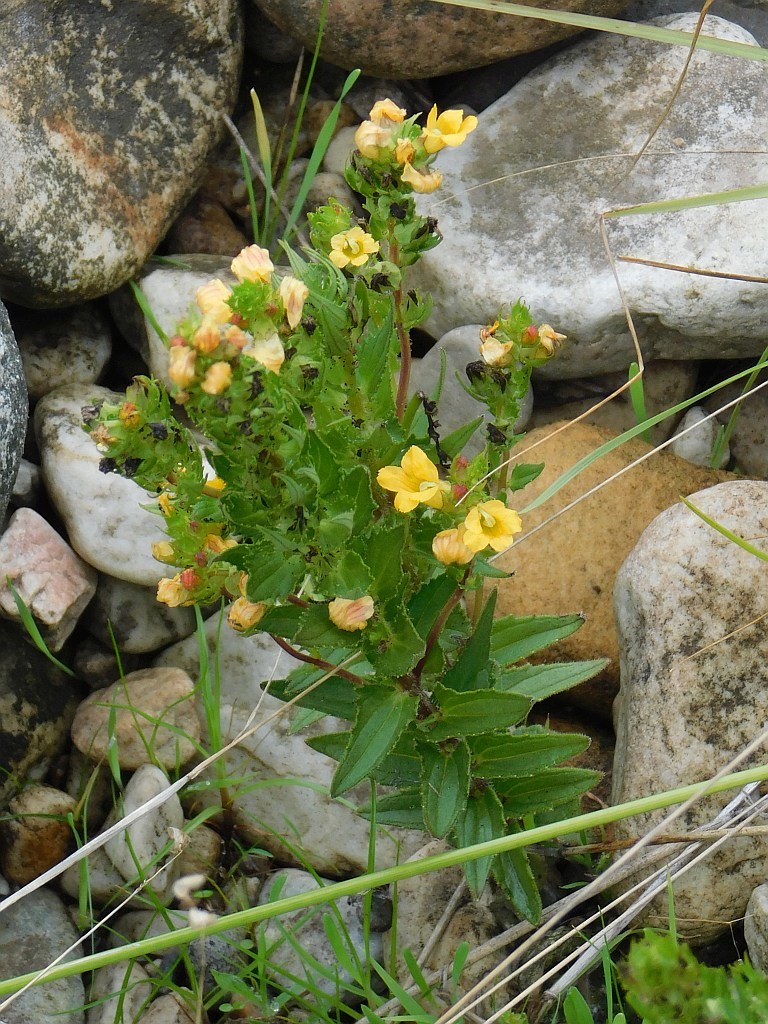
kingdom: Plantae
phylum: Tracheophyta
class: Magnoliopsida
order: Lamiales
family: Orobanchaceae
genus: Alectra
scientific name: Alectra sessiliflora
